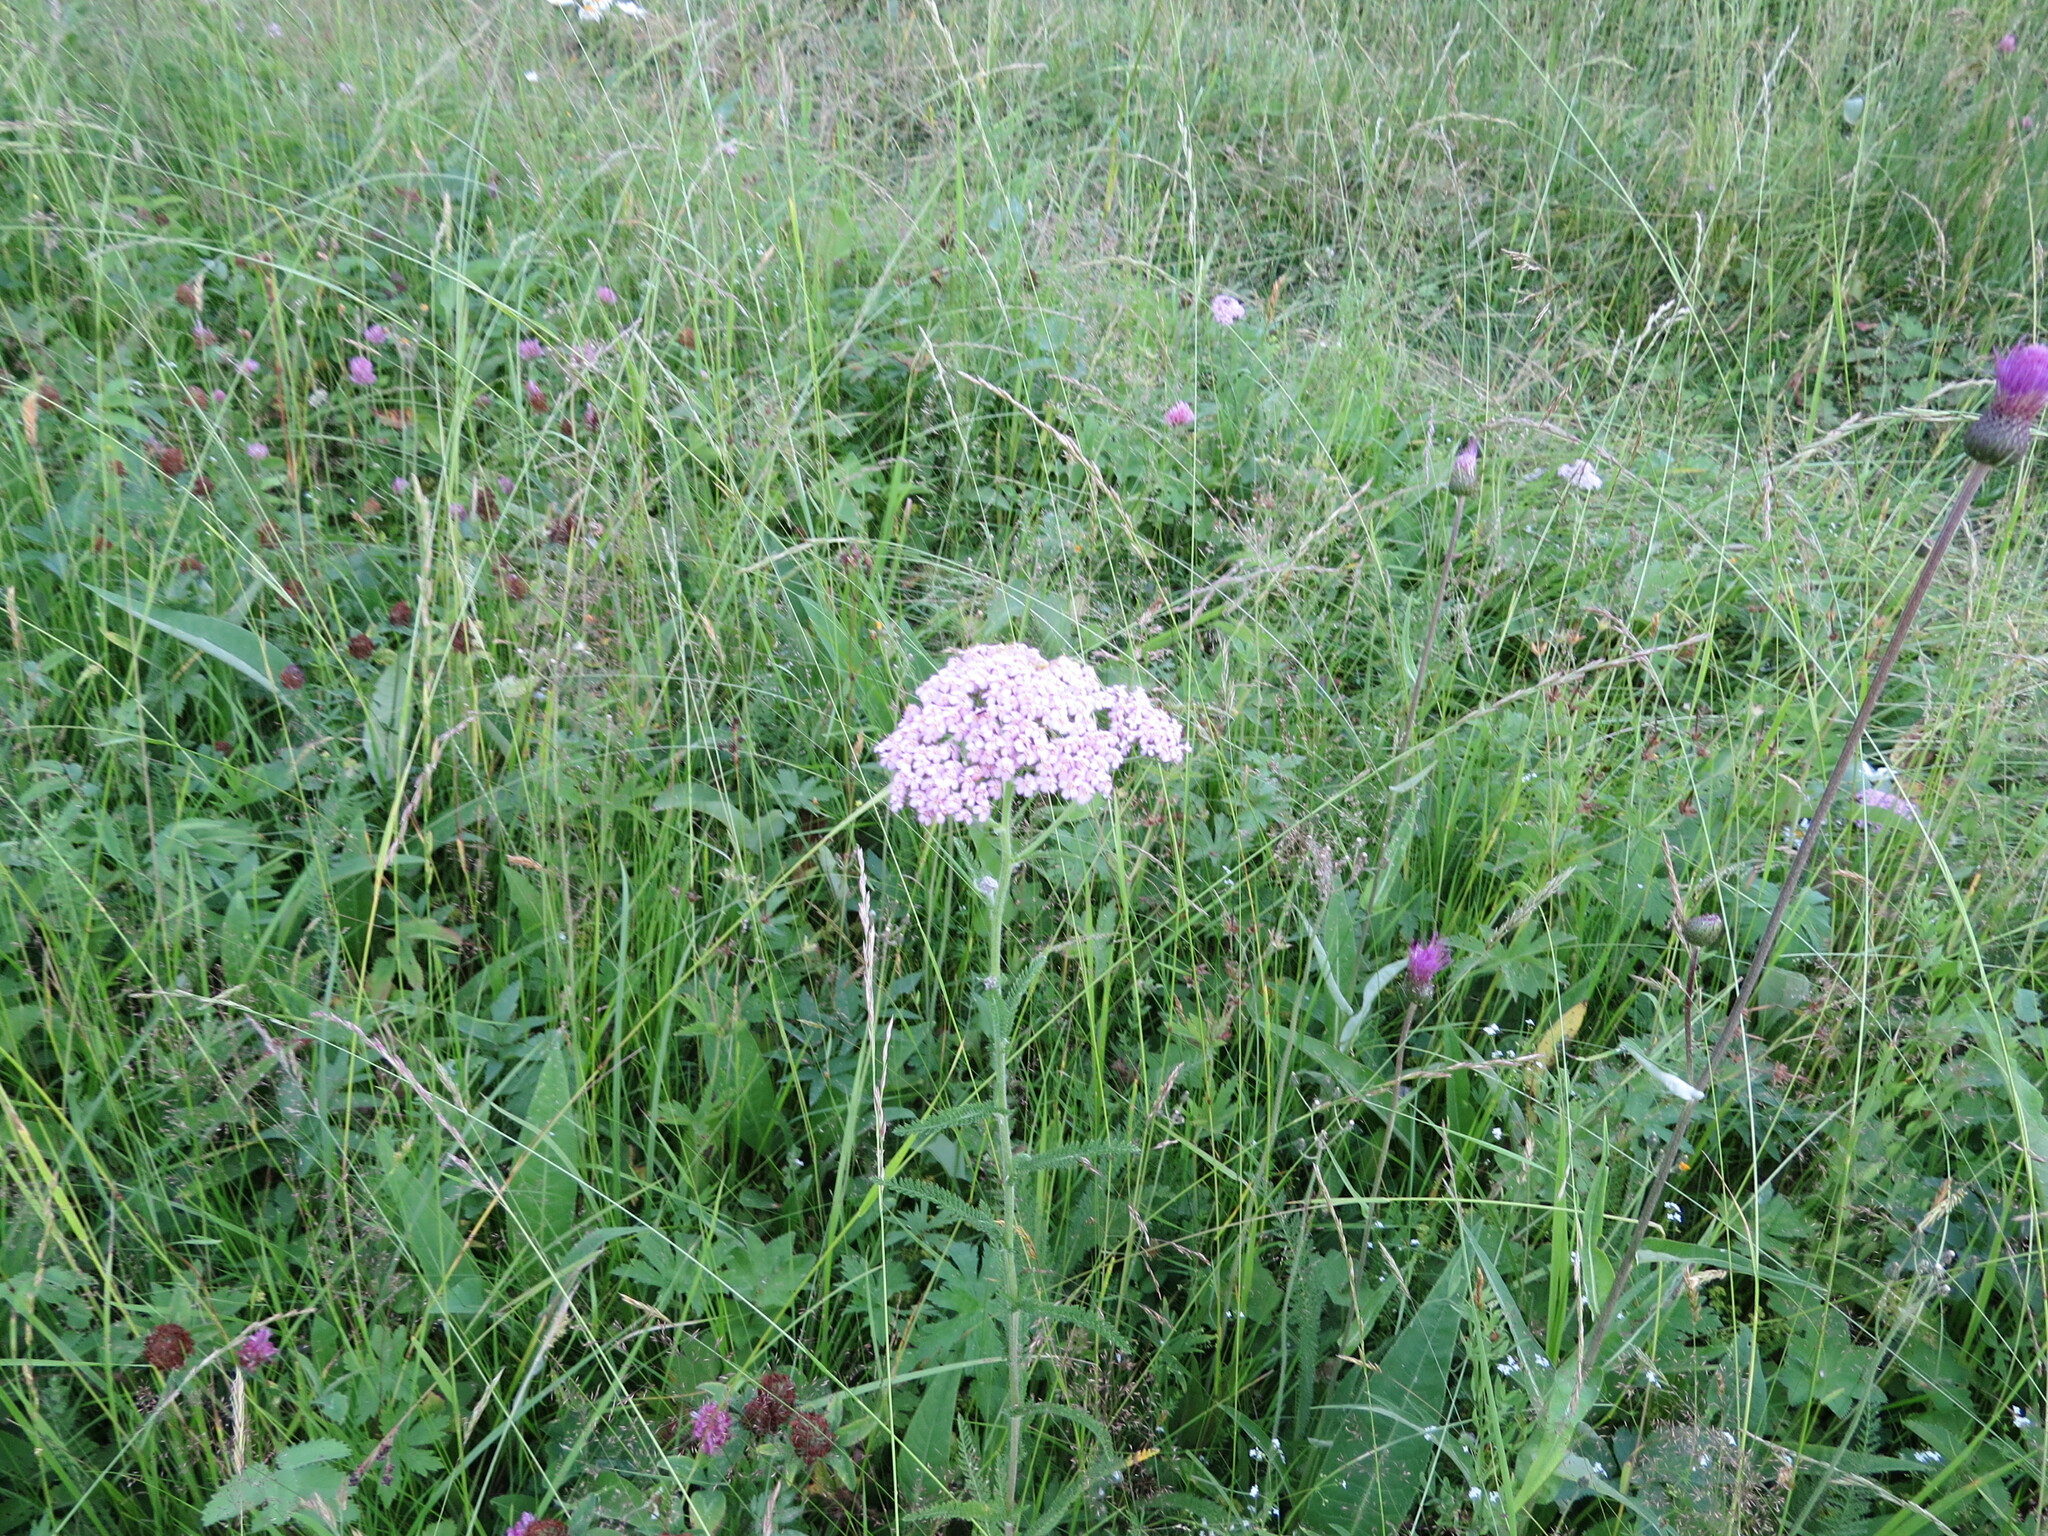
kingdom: Plantae
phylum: Tracheophyta
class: Magnoliopsida
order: Asterales
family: Asteraceae
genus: Achillea
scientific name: Achillea asiatica
